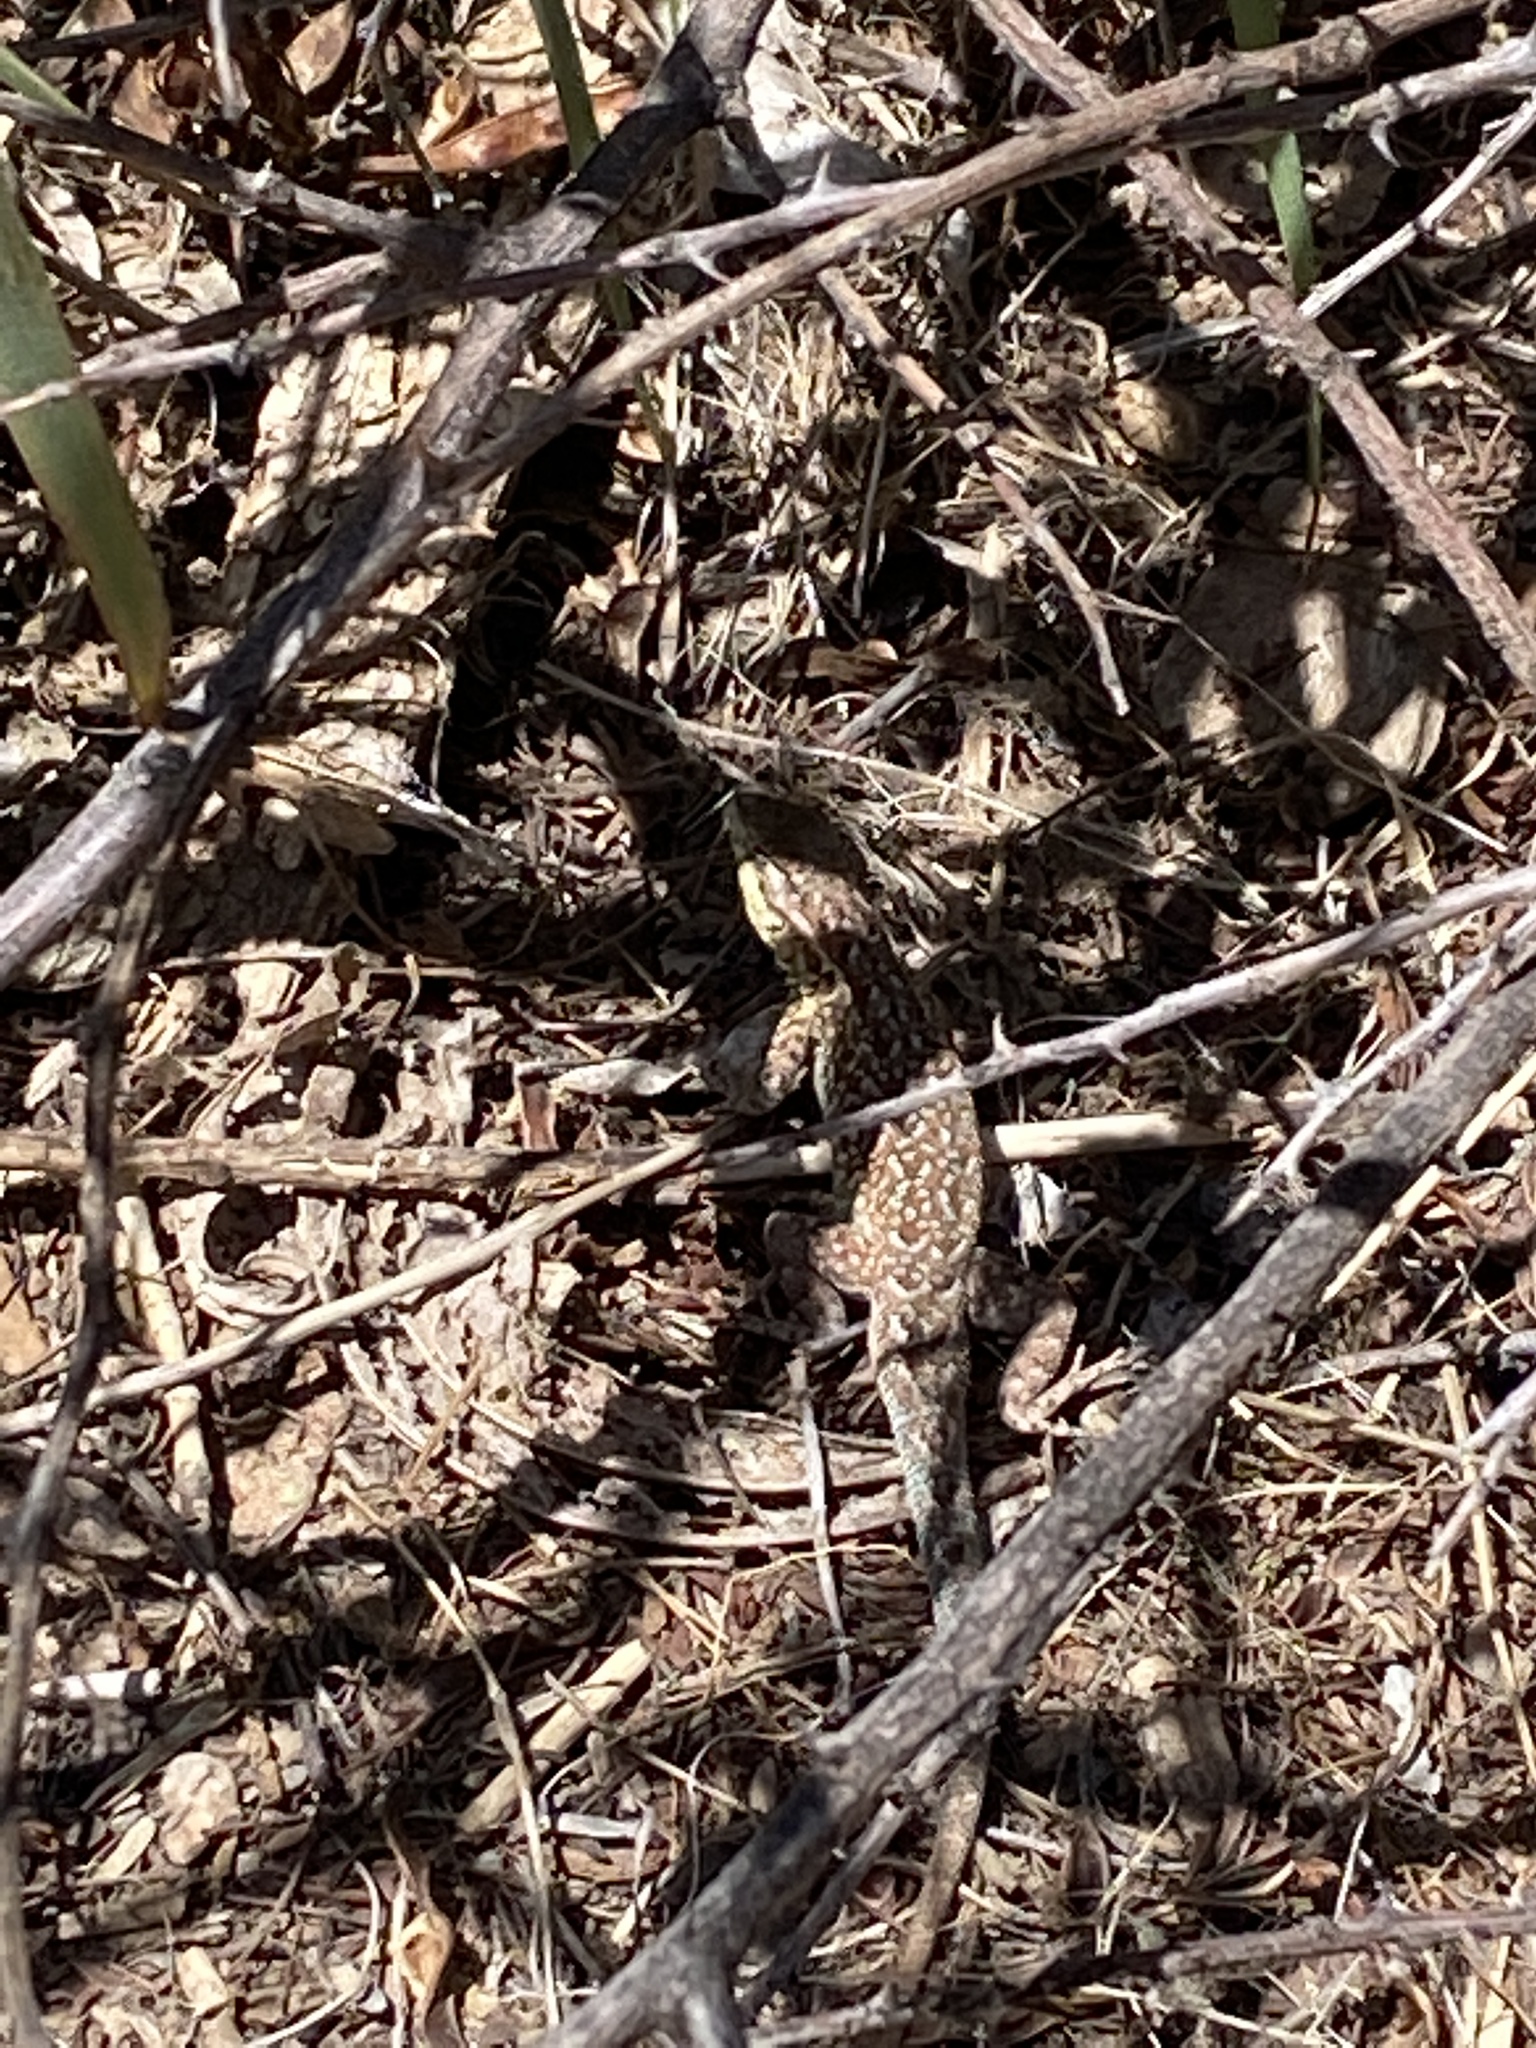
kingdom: Animalia
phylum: Chordata
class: Squamata
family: Phrynosomatidae
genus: Uta
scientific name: Uta stansburiana
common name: Side-blotched lizard
